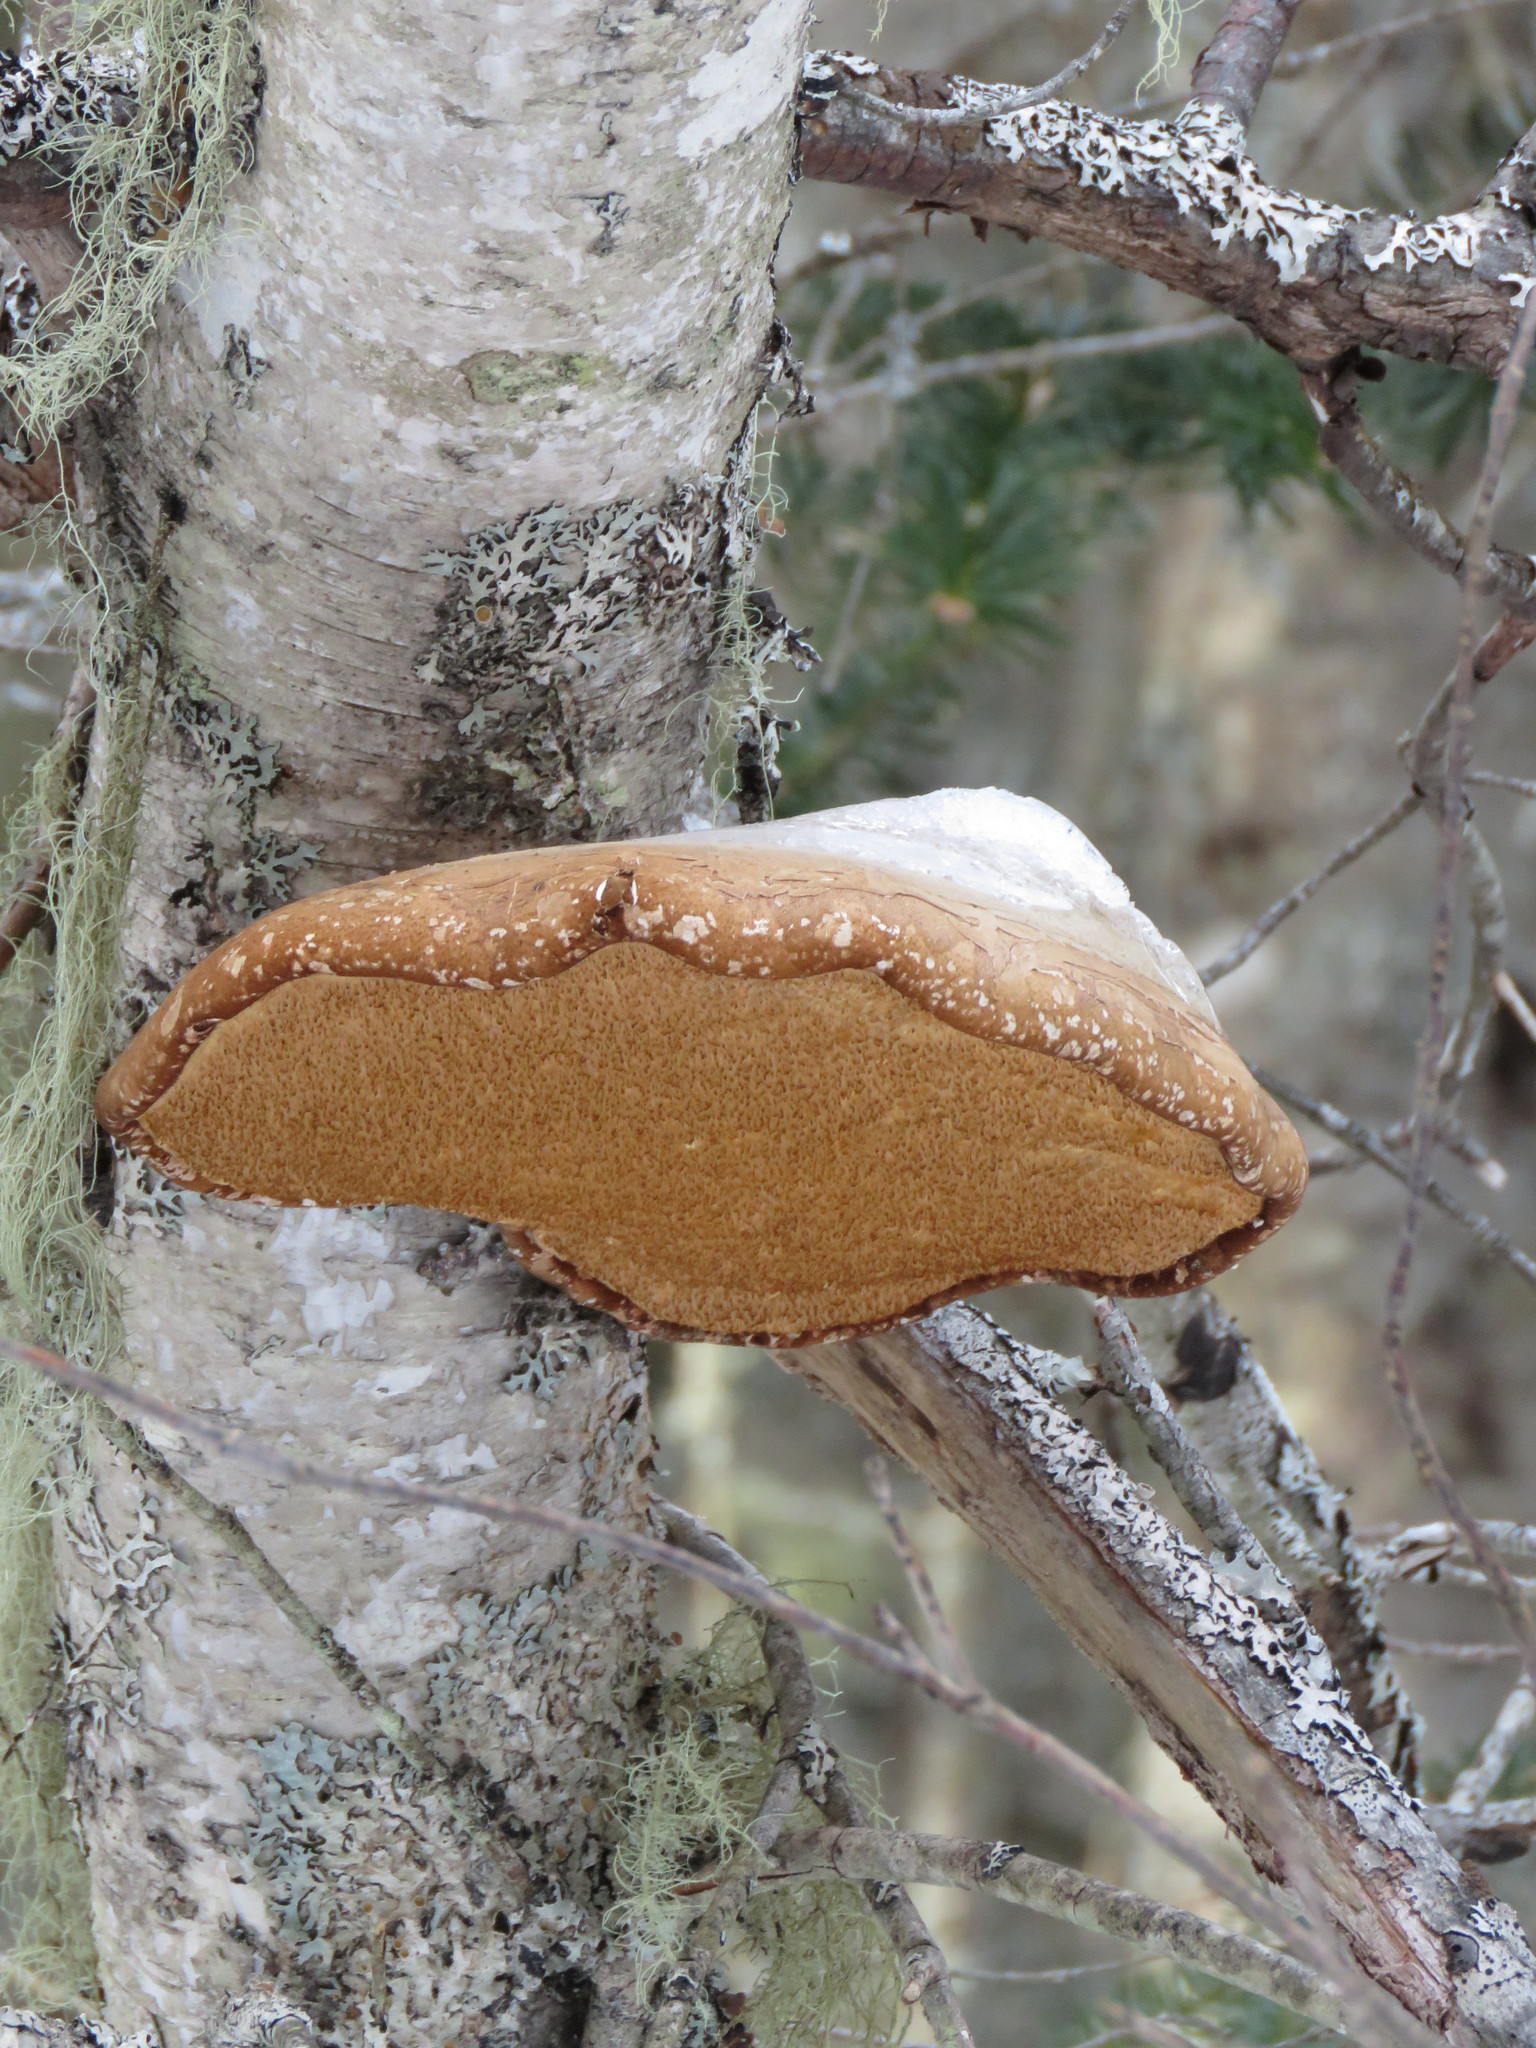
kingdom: Fungi
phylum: Basidiomycota
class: Agaricomycetes
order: Polyporales
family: Fomitopsidaceae
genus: Fomitopsis
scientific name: Fomitopsis betulina
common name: Birch polypore
